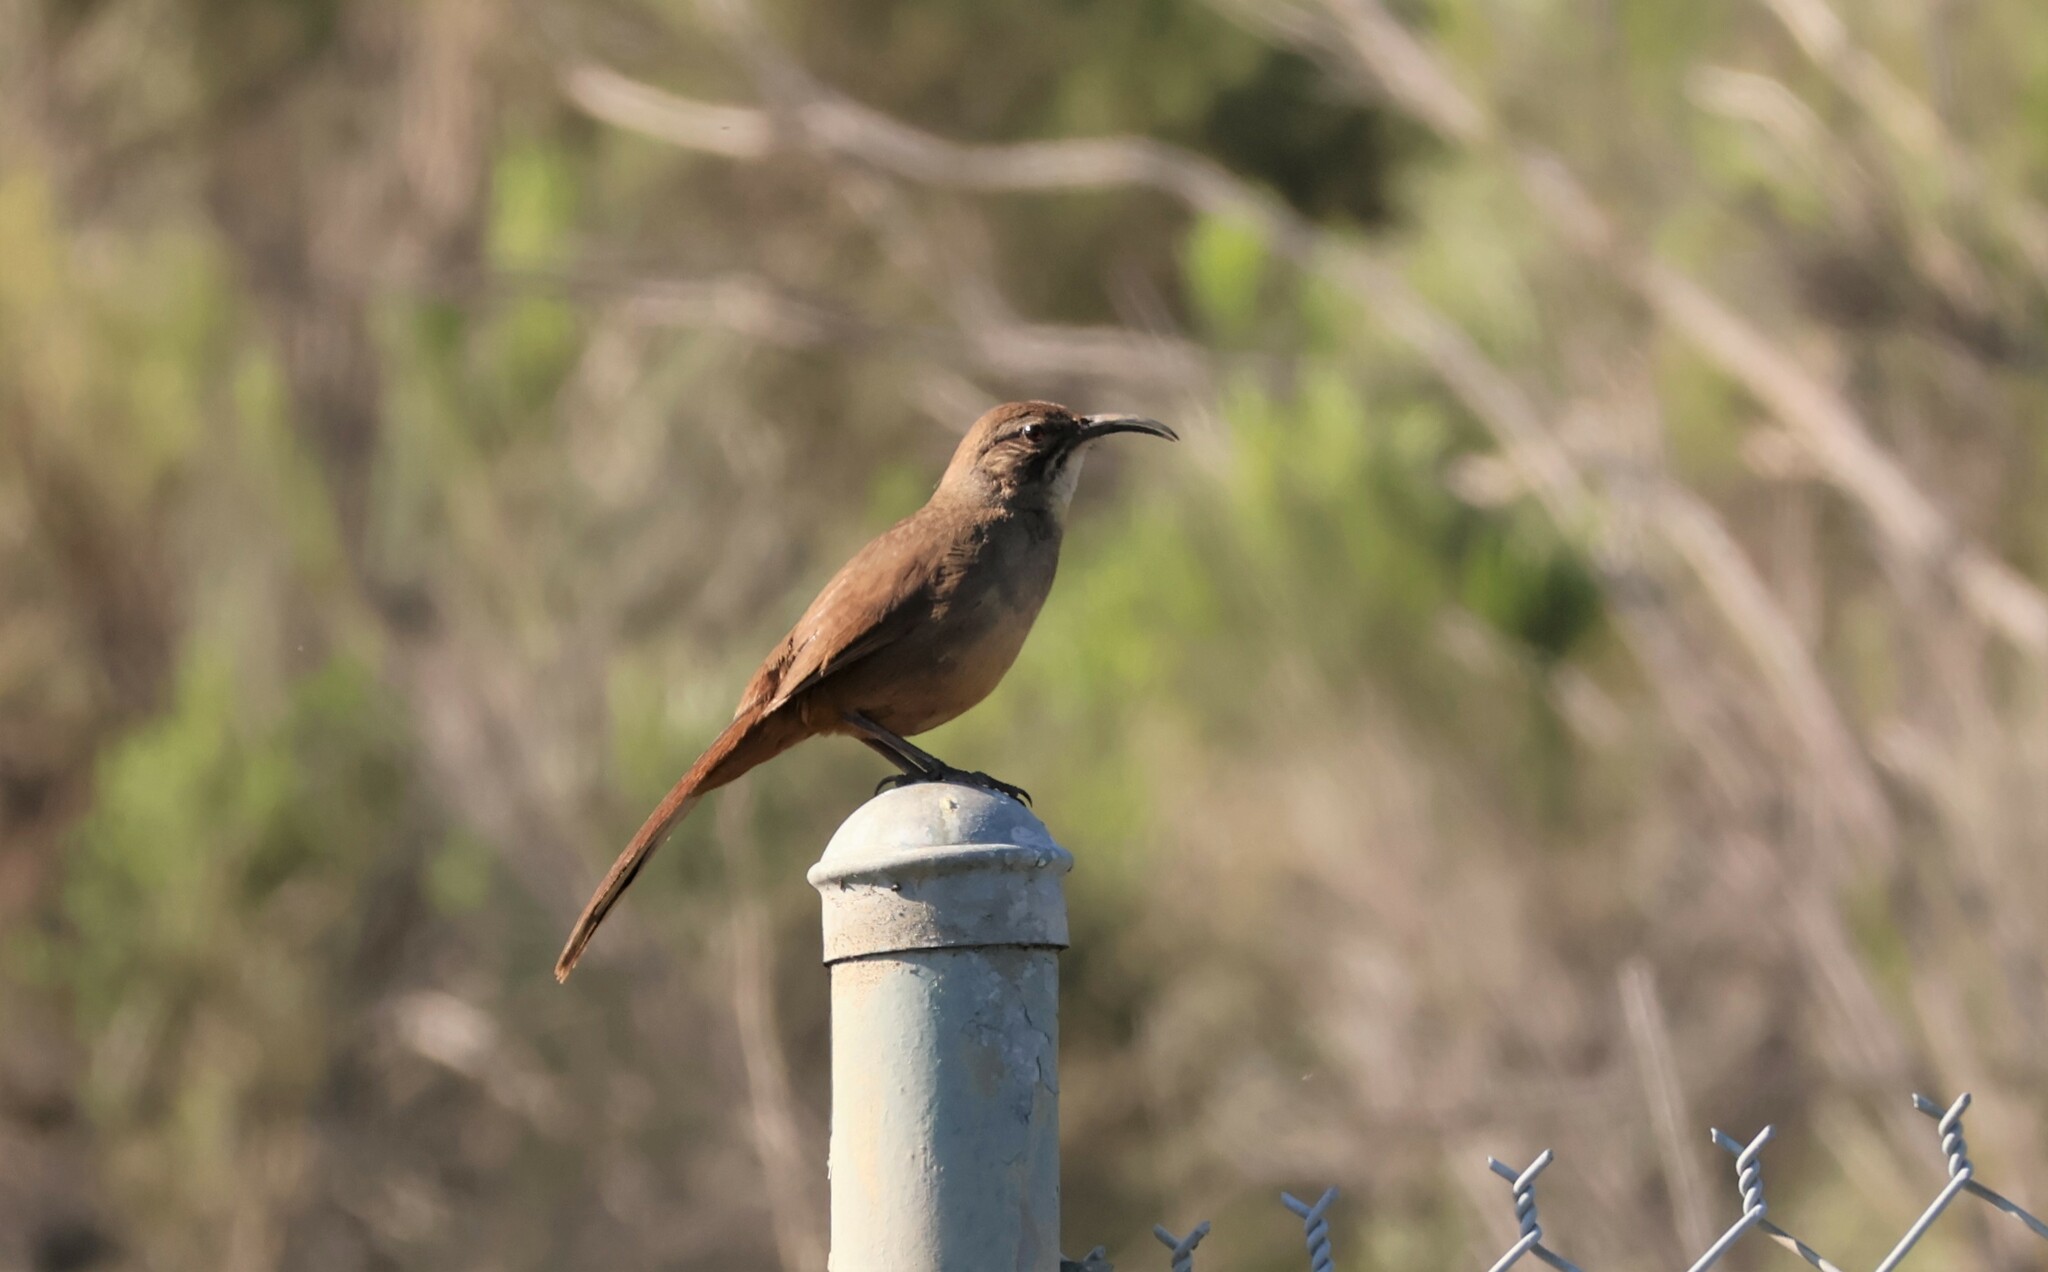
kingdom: Animalia
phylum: Chordata
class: Aves
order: Passeriformes
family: Mimidae
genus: Toxostoma
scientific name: Toxostoma redivivum
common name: California thrasher
